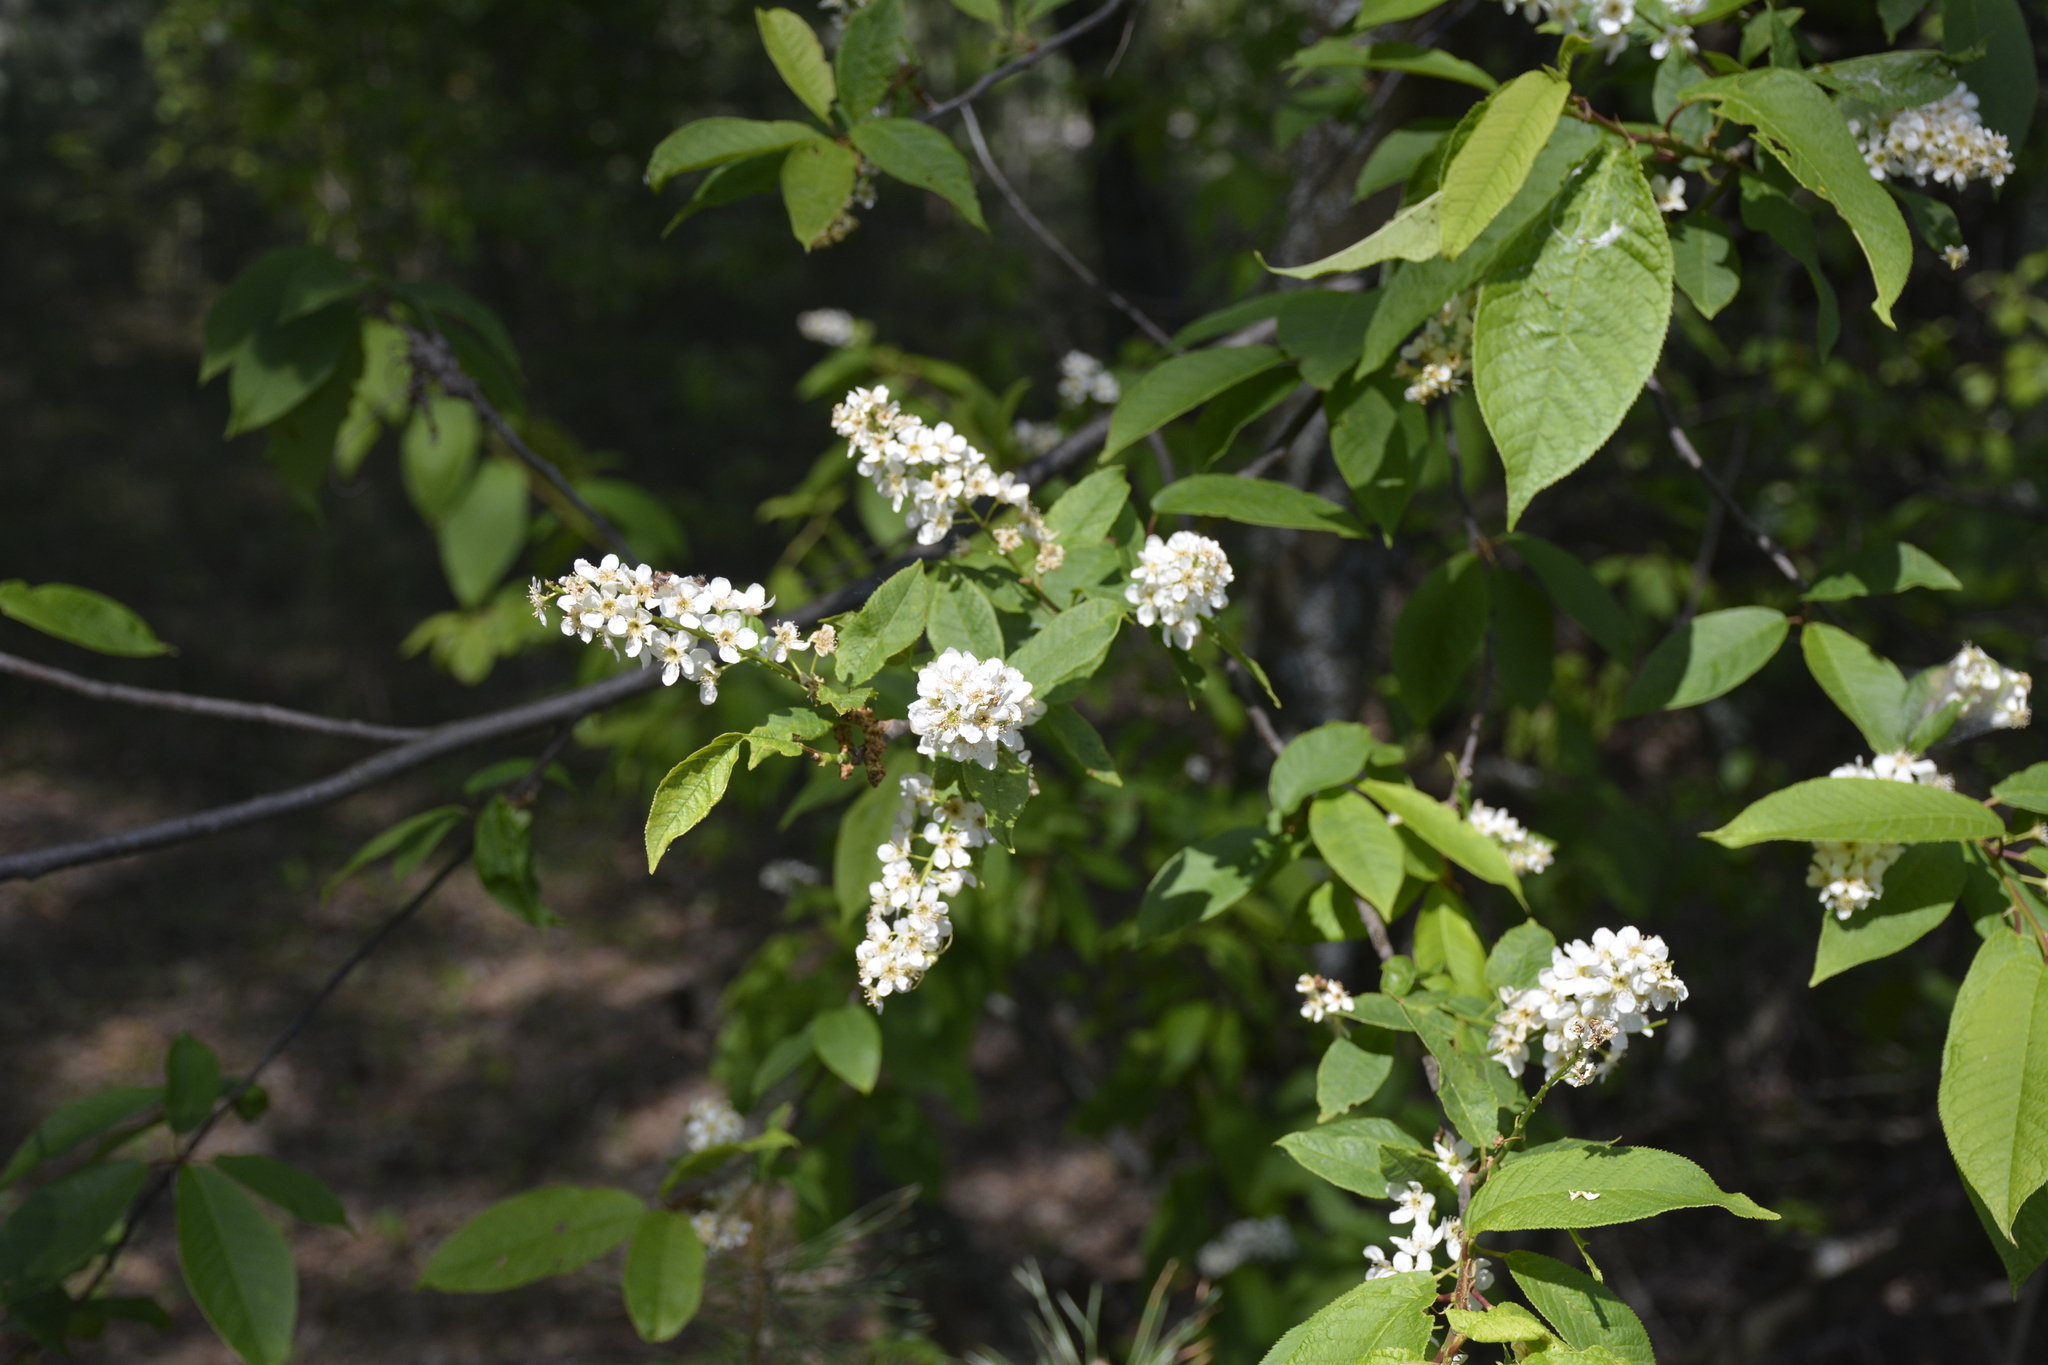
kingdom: Plantae
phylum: Tracheophyta
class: Magnoliopsida
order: Rosales
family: Rosaceae
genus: Prunus
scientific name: Prunus padus
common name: Bird cherry
